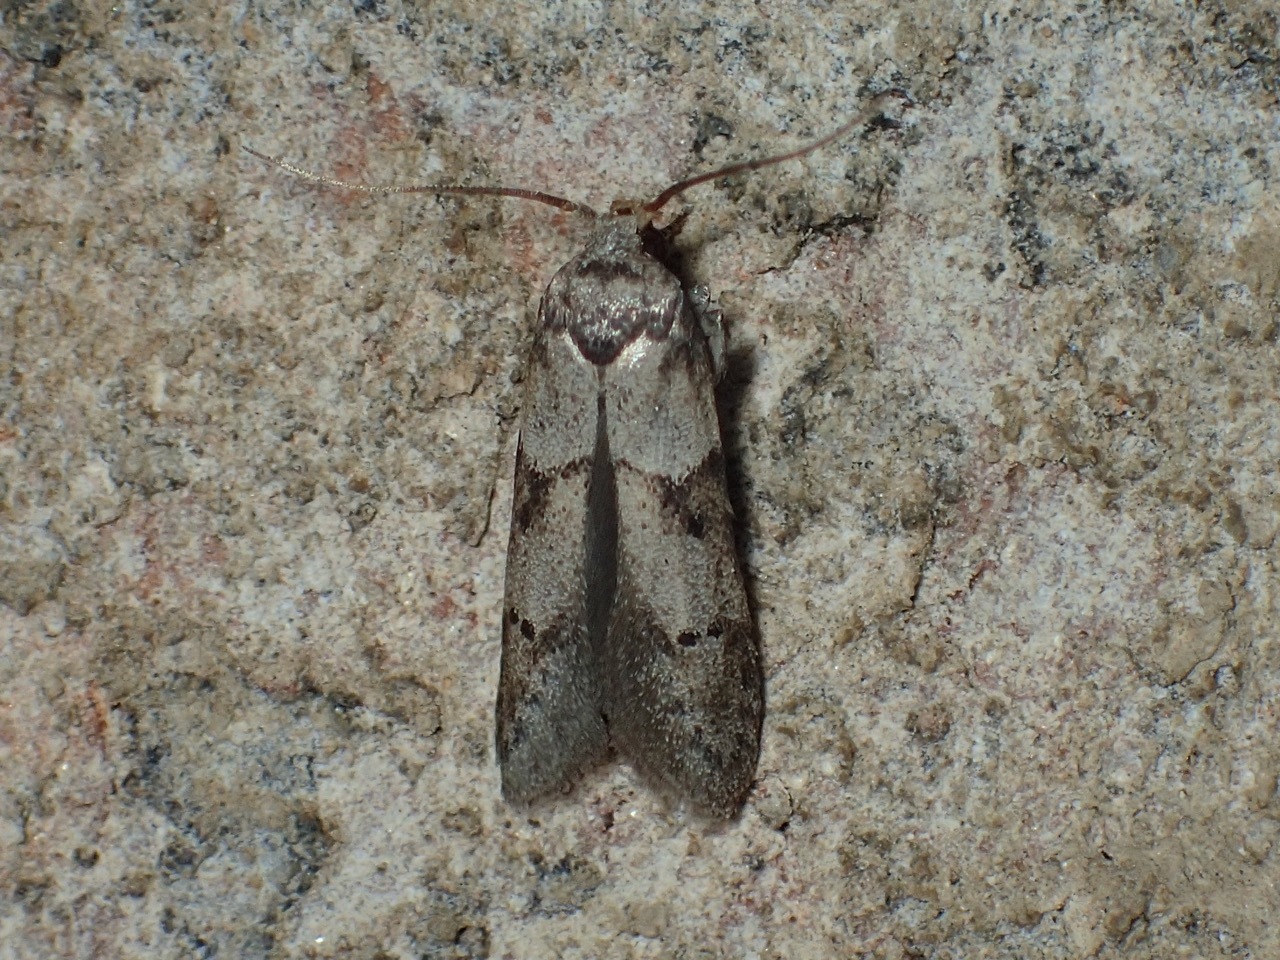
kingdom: Animalia
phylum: Arthropoda
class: Insecta
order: Lepidoptera
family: Blastobasidae
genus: Blastobasis
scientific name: Blastobasis glandulella
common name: Acorn moth
